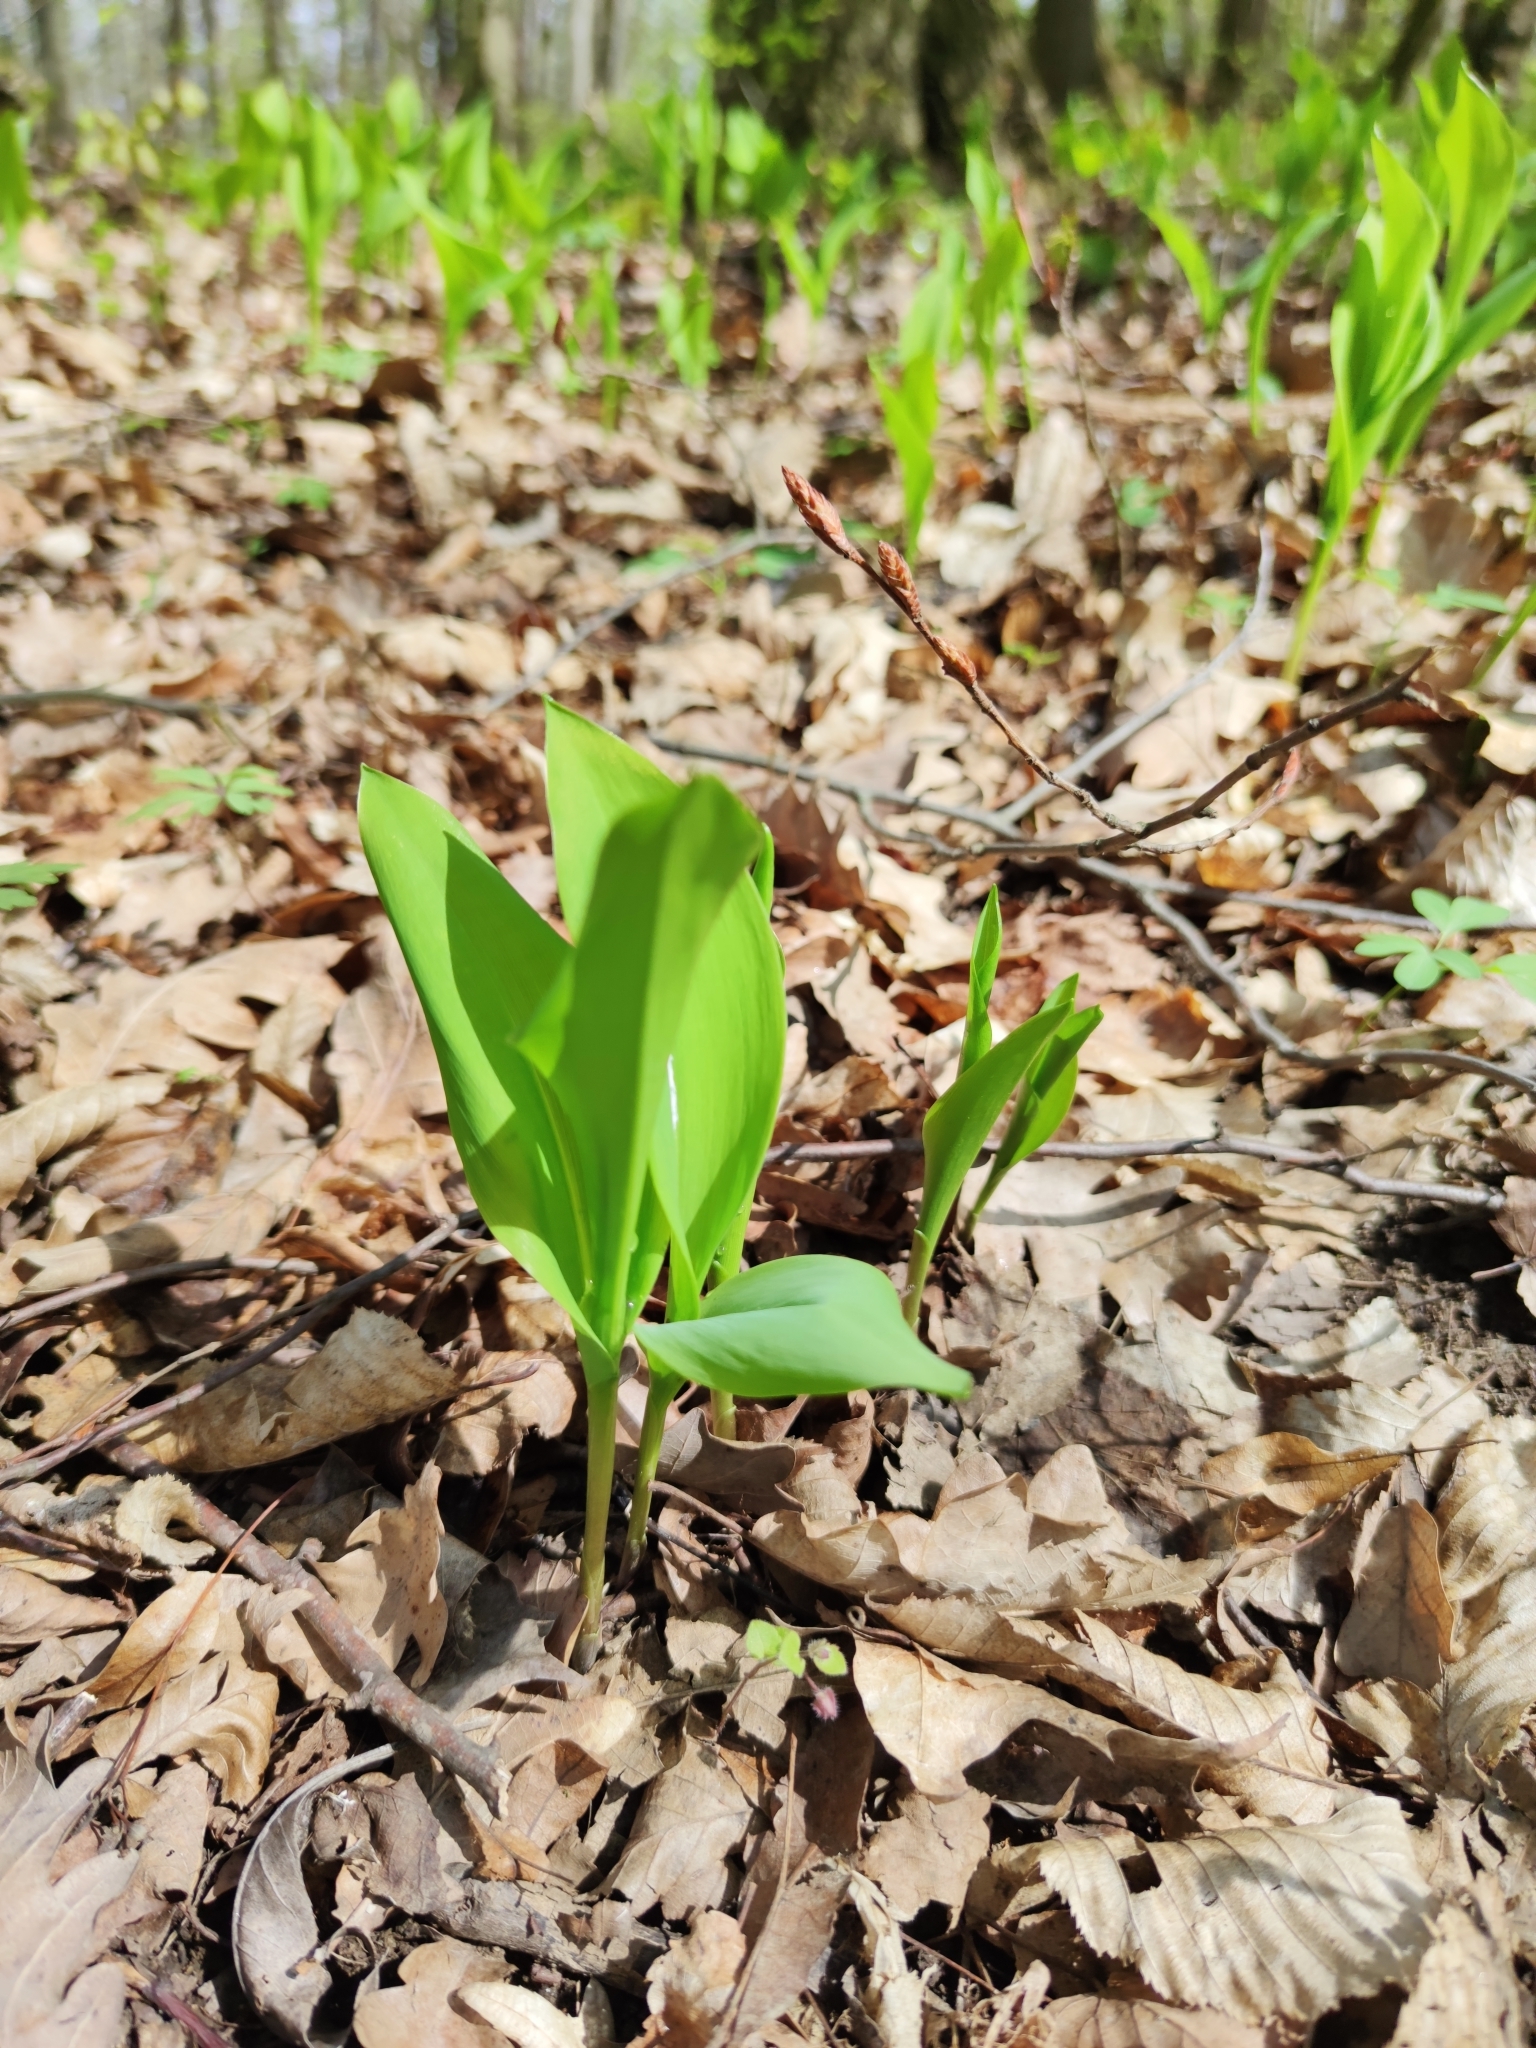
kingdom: Plantae
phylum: Tracheophyta
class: Liliopsida
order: Asparagales
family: Asparagaceae
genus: Convallaria
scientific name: Convallaria majalis
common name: Lily-of-the-valley
